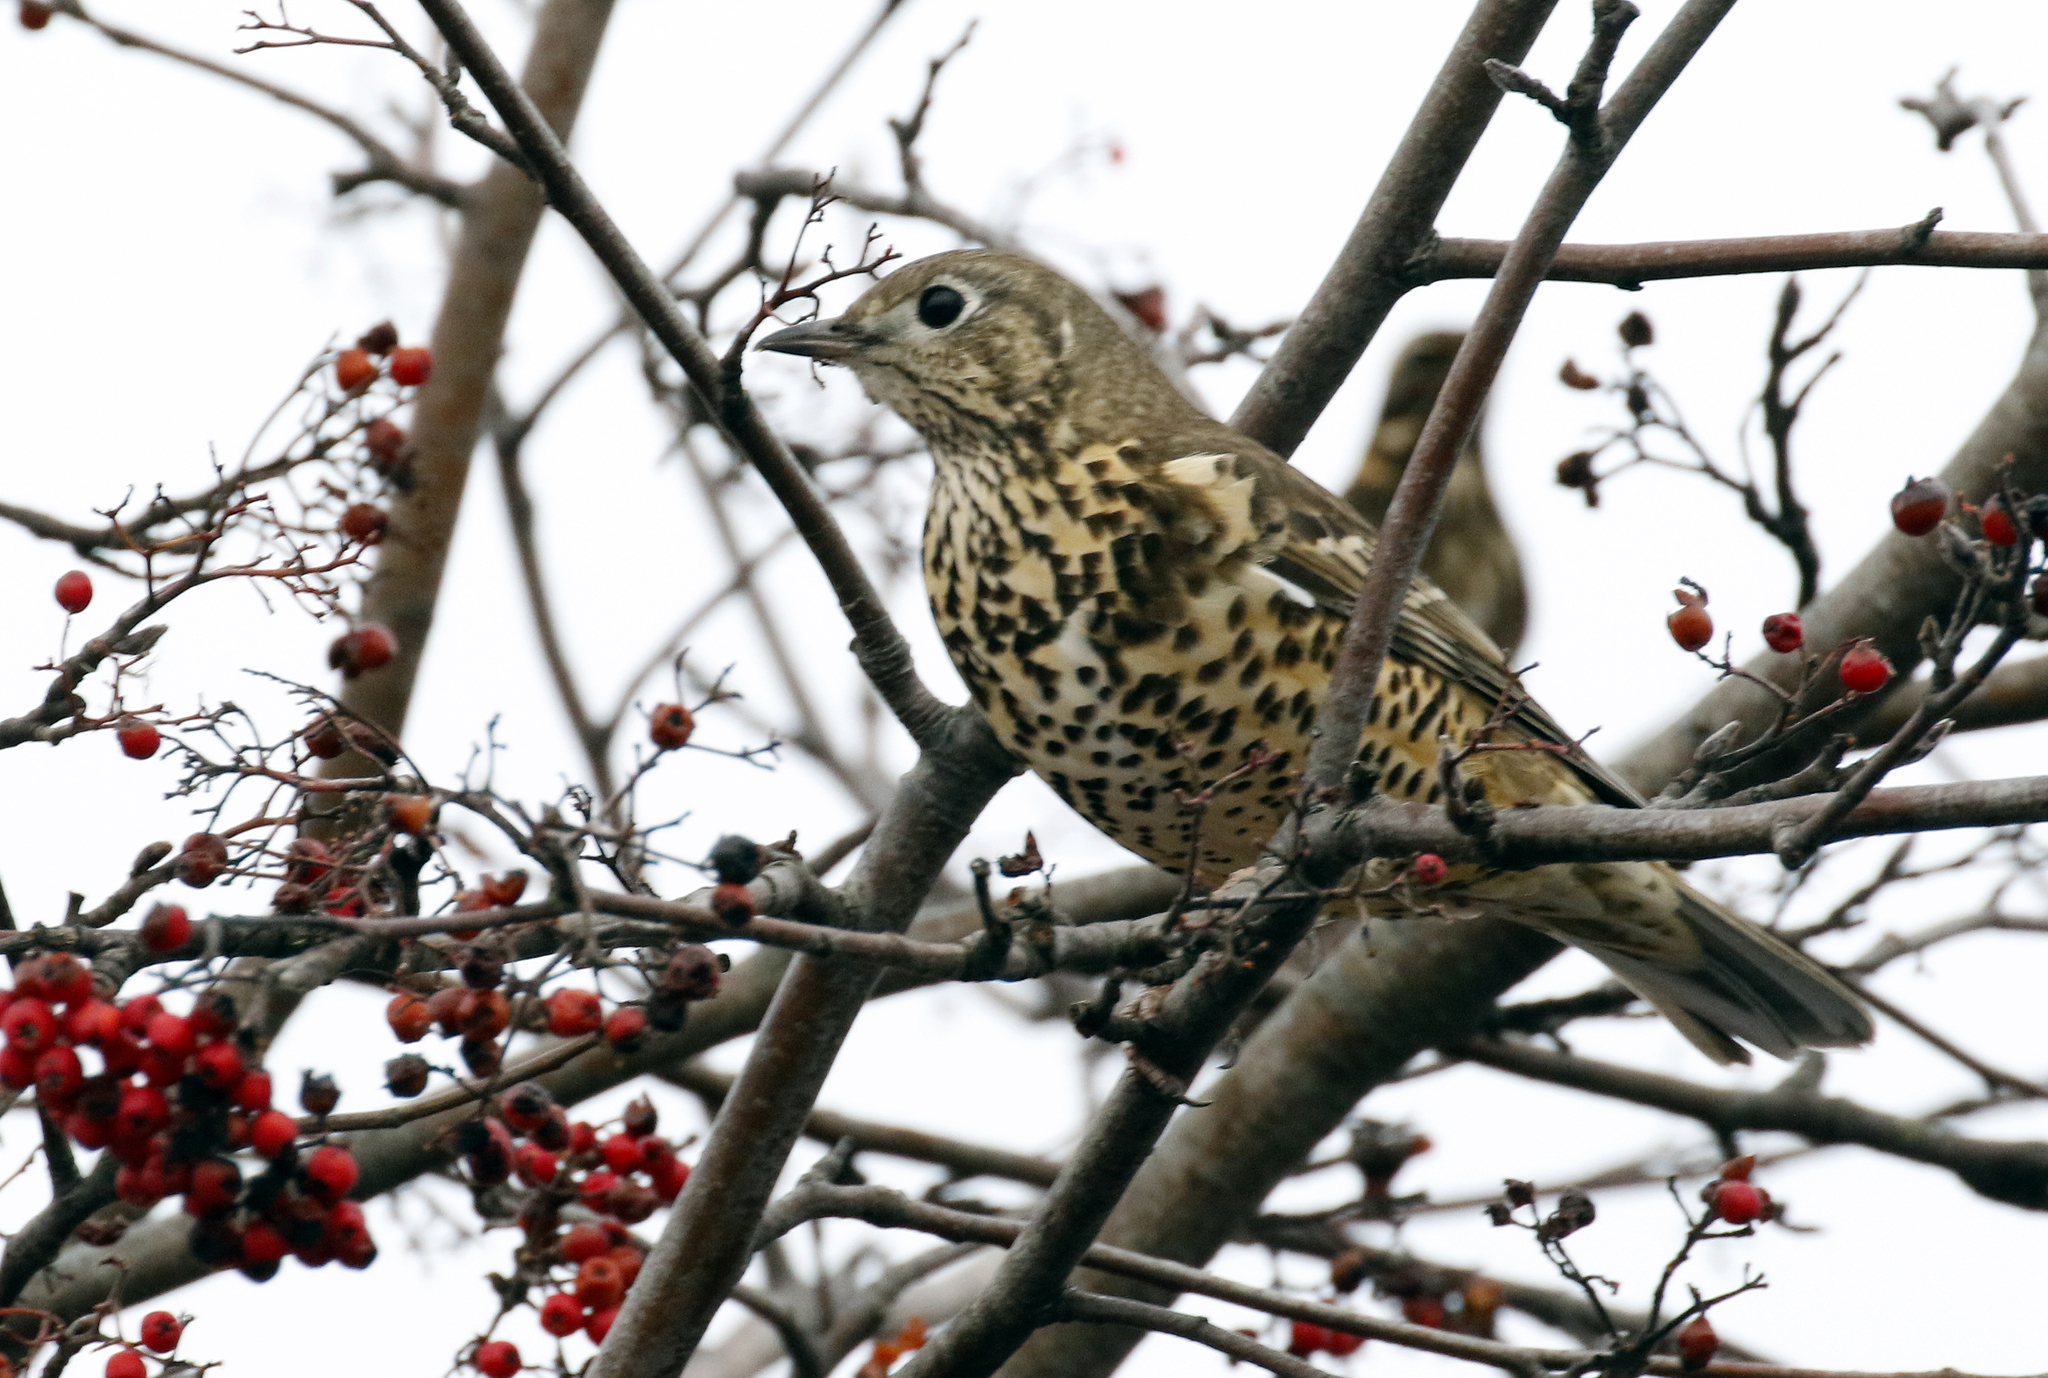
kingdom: Animalia
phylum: Chordata
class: Aves
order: Passeriformes
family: Turdidae
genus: Turdus
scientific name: Turdus viscivorus
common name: Mistle thrush
